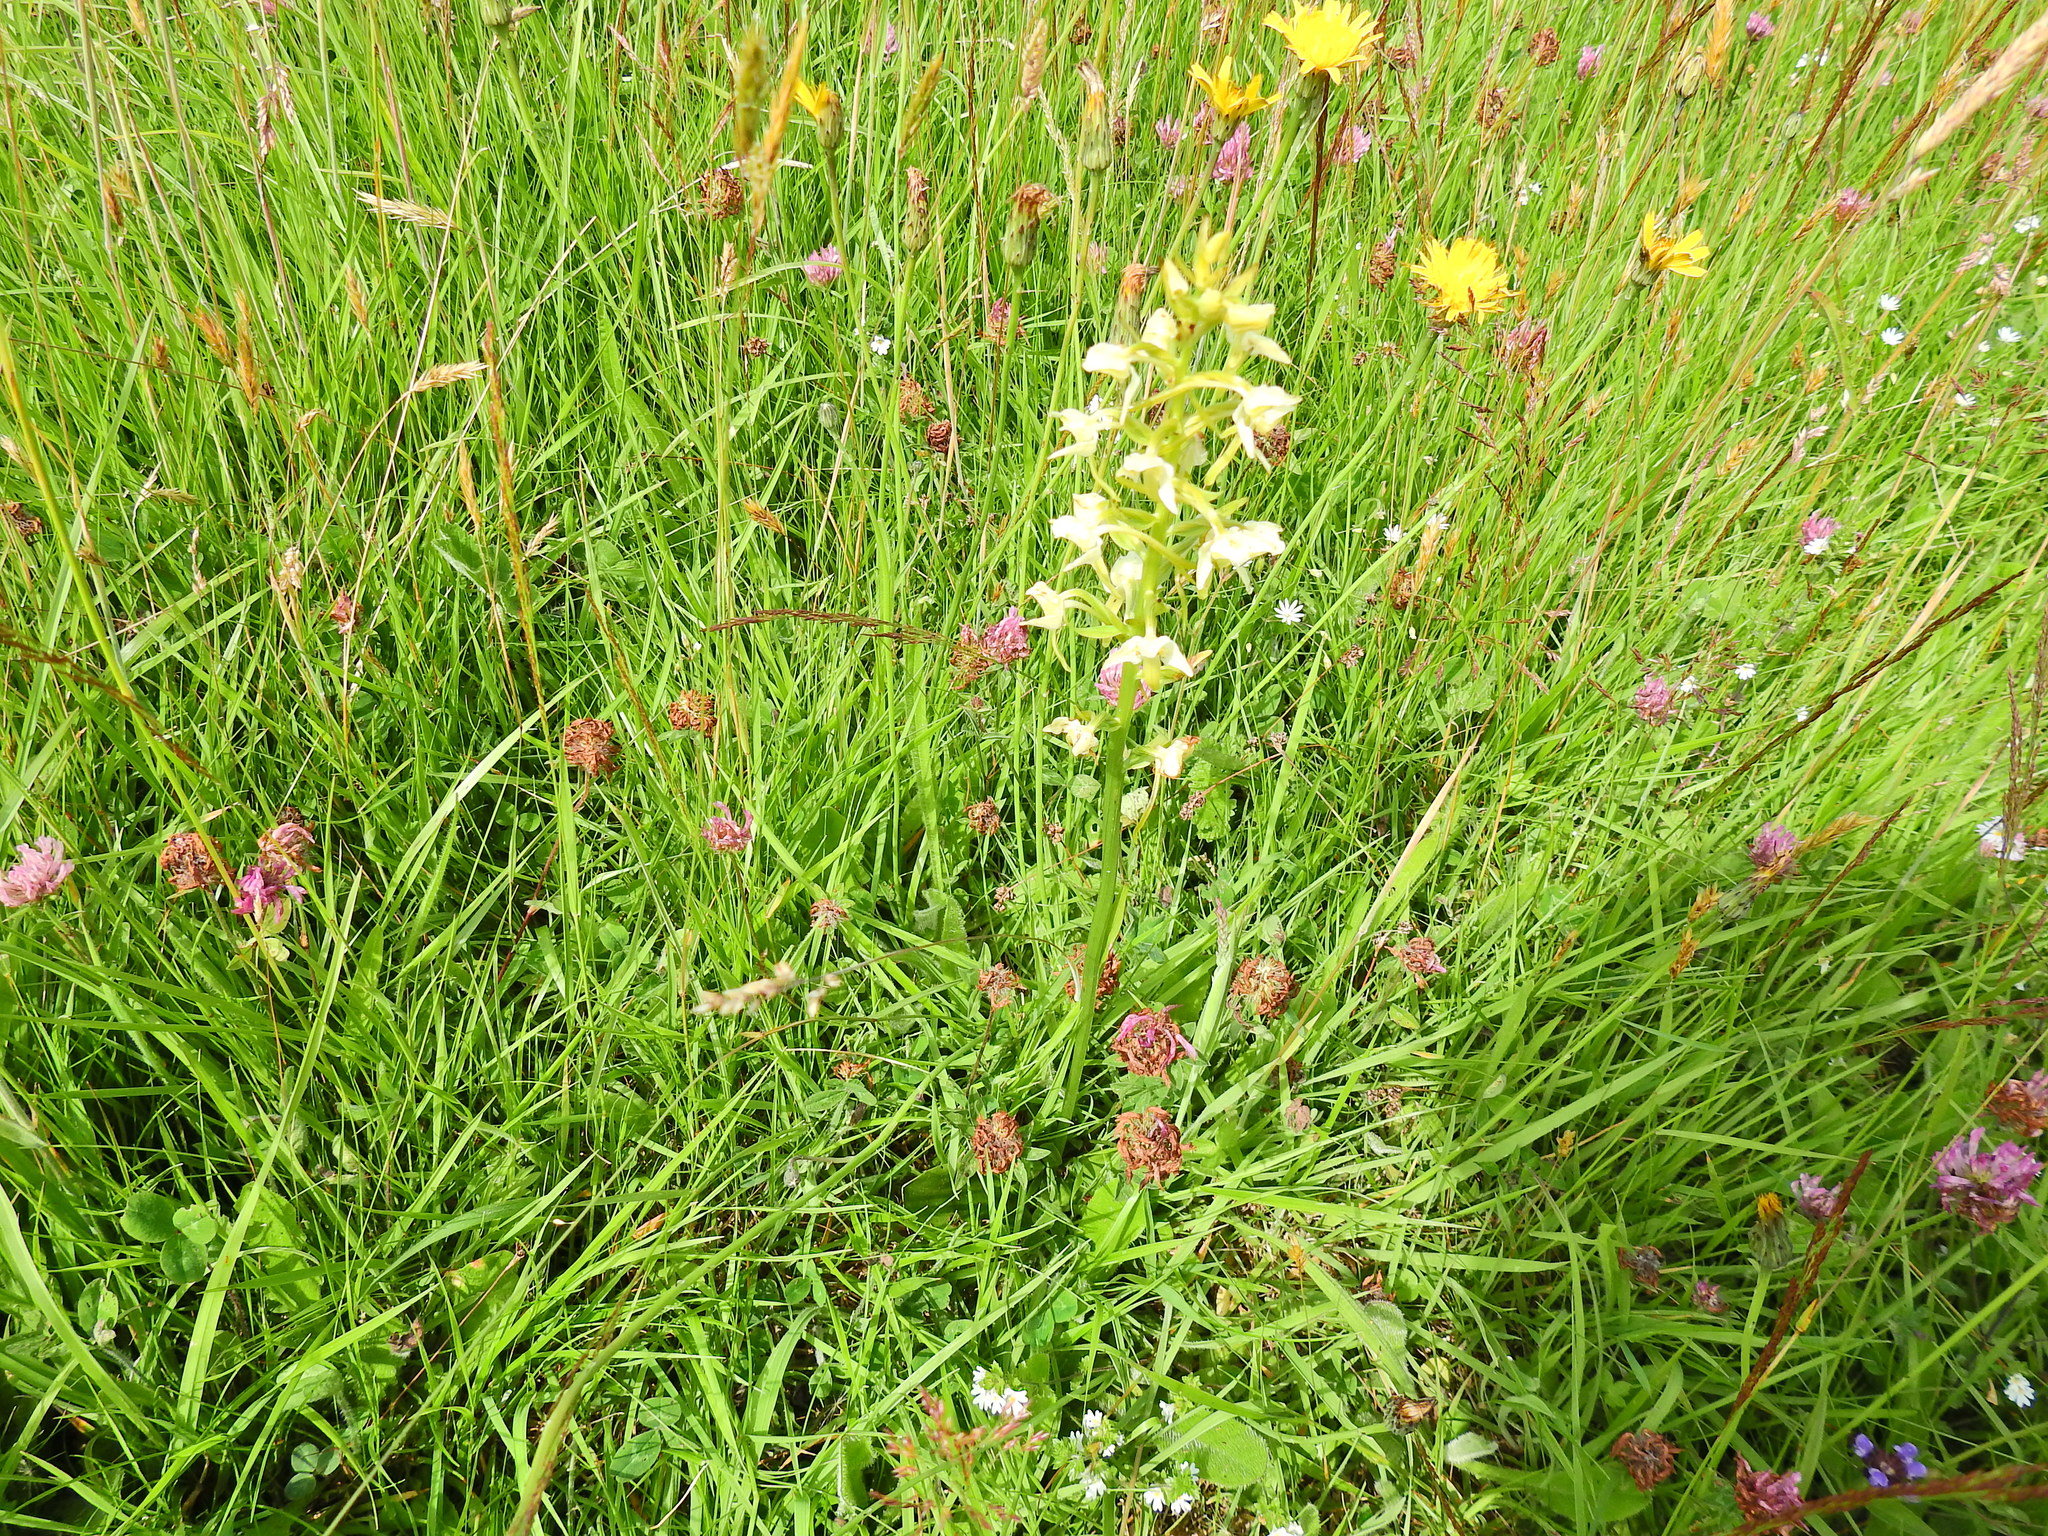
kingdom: Plantae
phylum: Tracheophyta
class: Liliopsida
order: Asparagales
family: Orchidaceae
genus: Platanthera
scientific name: Platanthera chlorantha
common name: Greater butterfly-orchid
